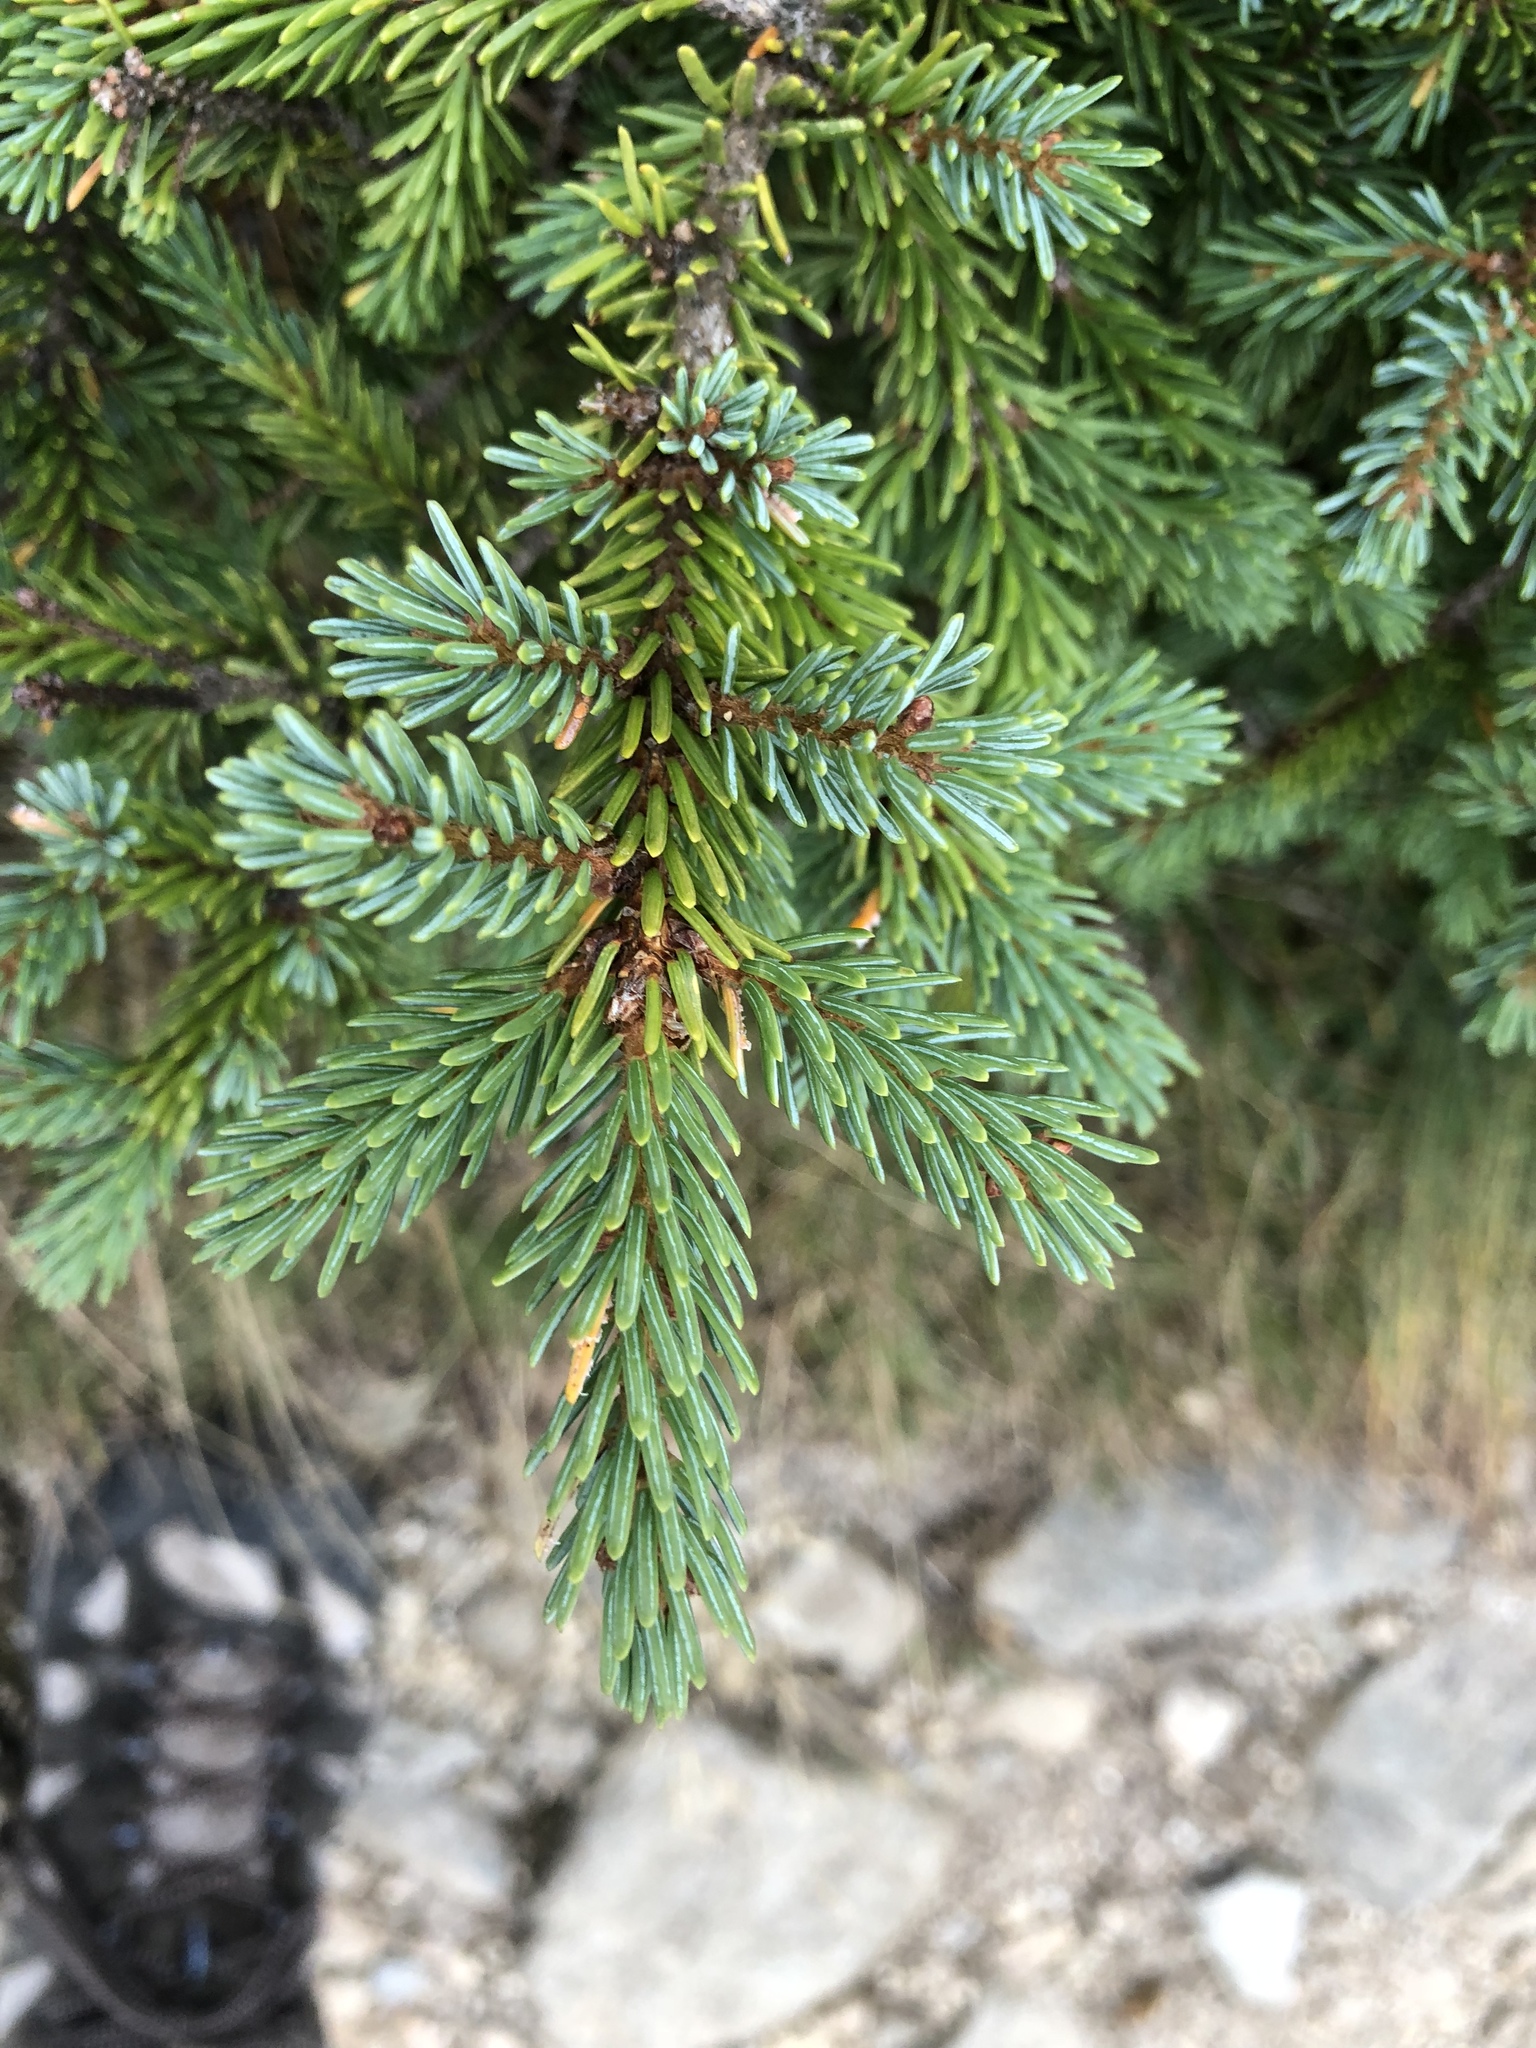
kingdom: Plantae
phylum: Tracheophyta
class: Pinopsida
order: Pinales
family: Pinaceae
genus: Picea
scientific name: Picea mariana
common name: Black spruce
